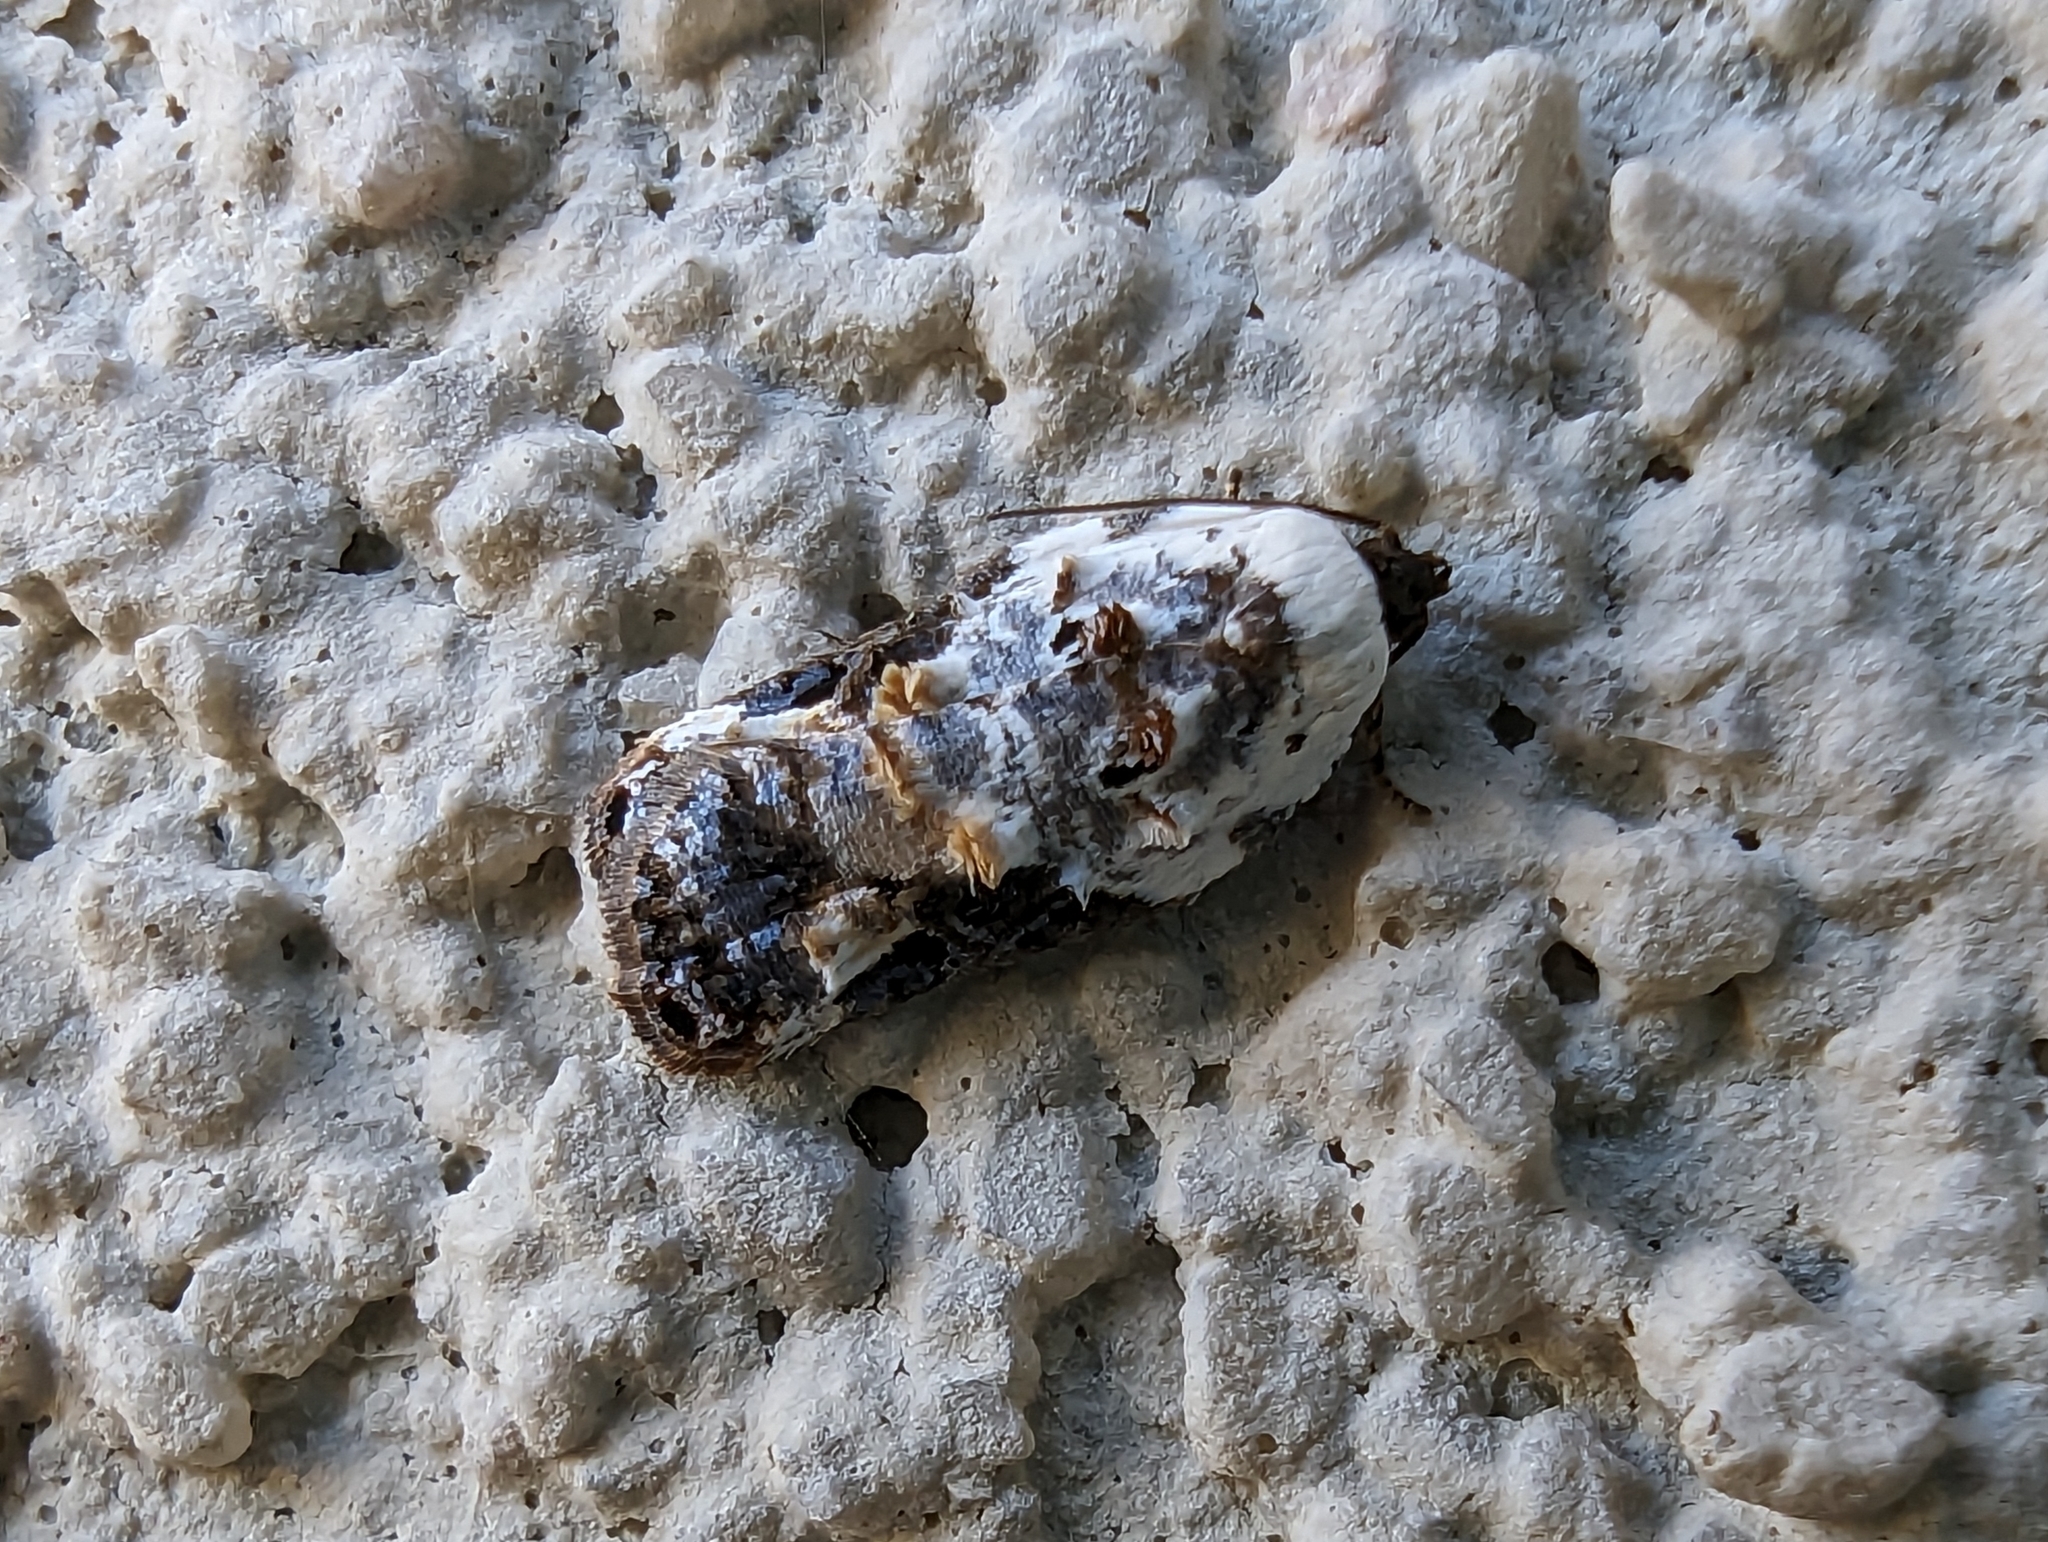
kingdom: Animalia
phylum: Arthropoda
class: Insecta
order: Lepidoptera
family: Tortricidae
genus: Acleris
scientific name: Acleris nivisellana
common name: Snowy-shouldered acleris moth
